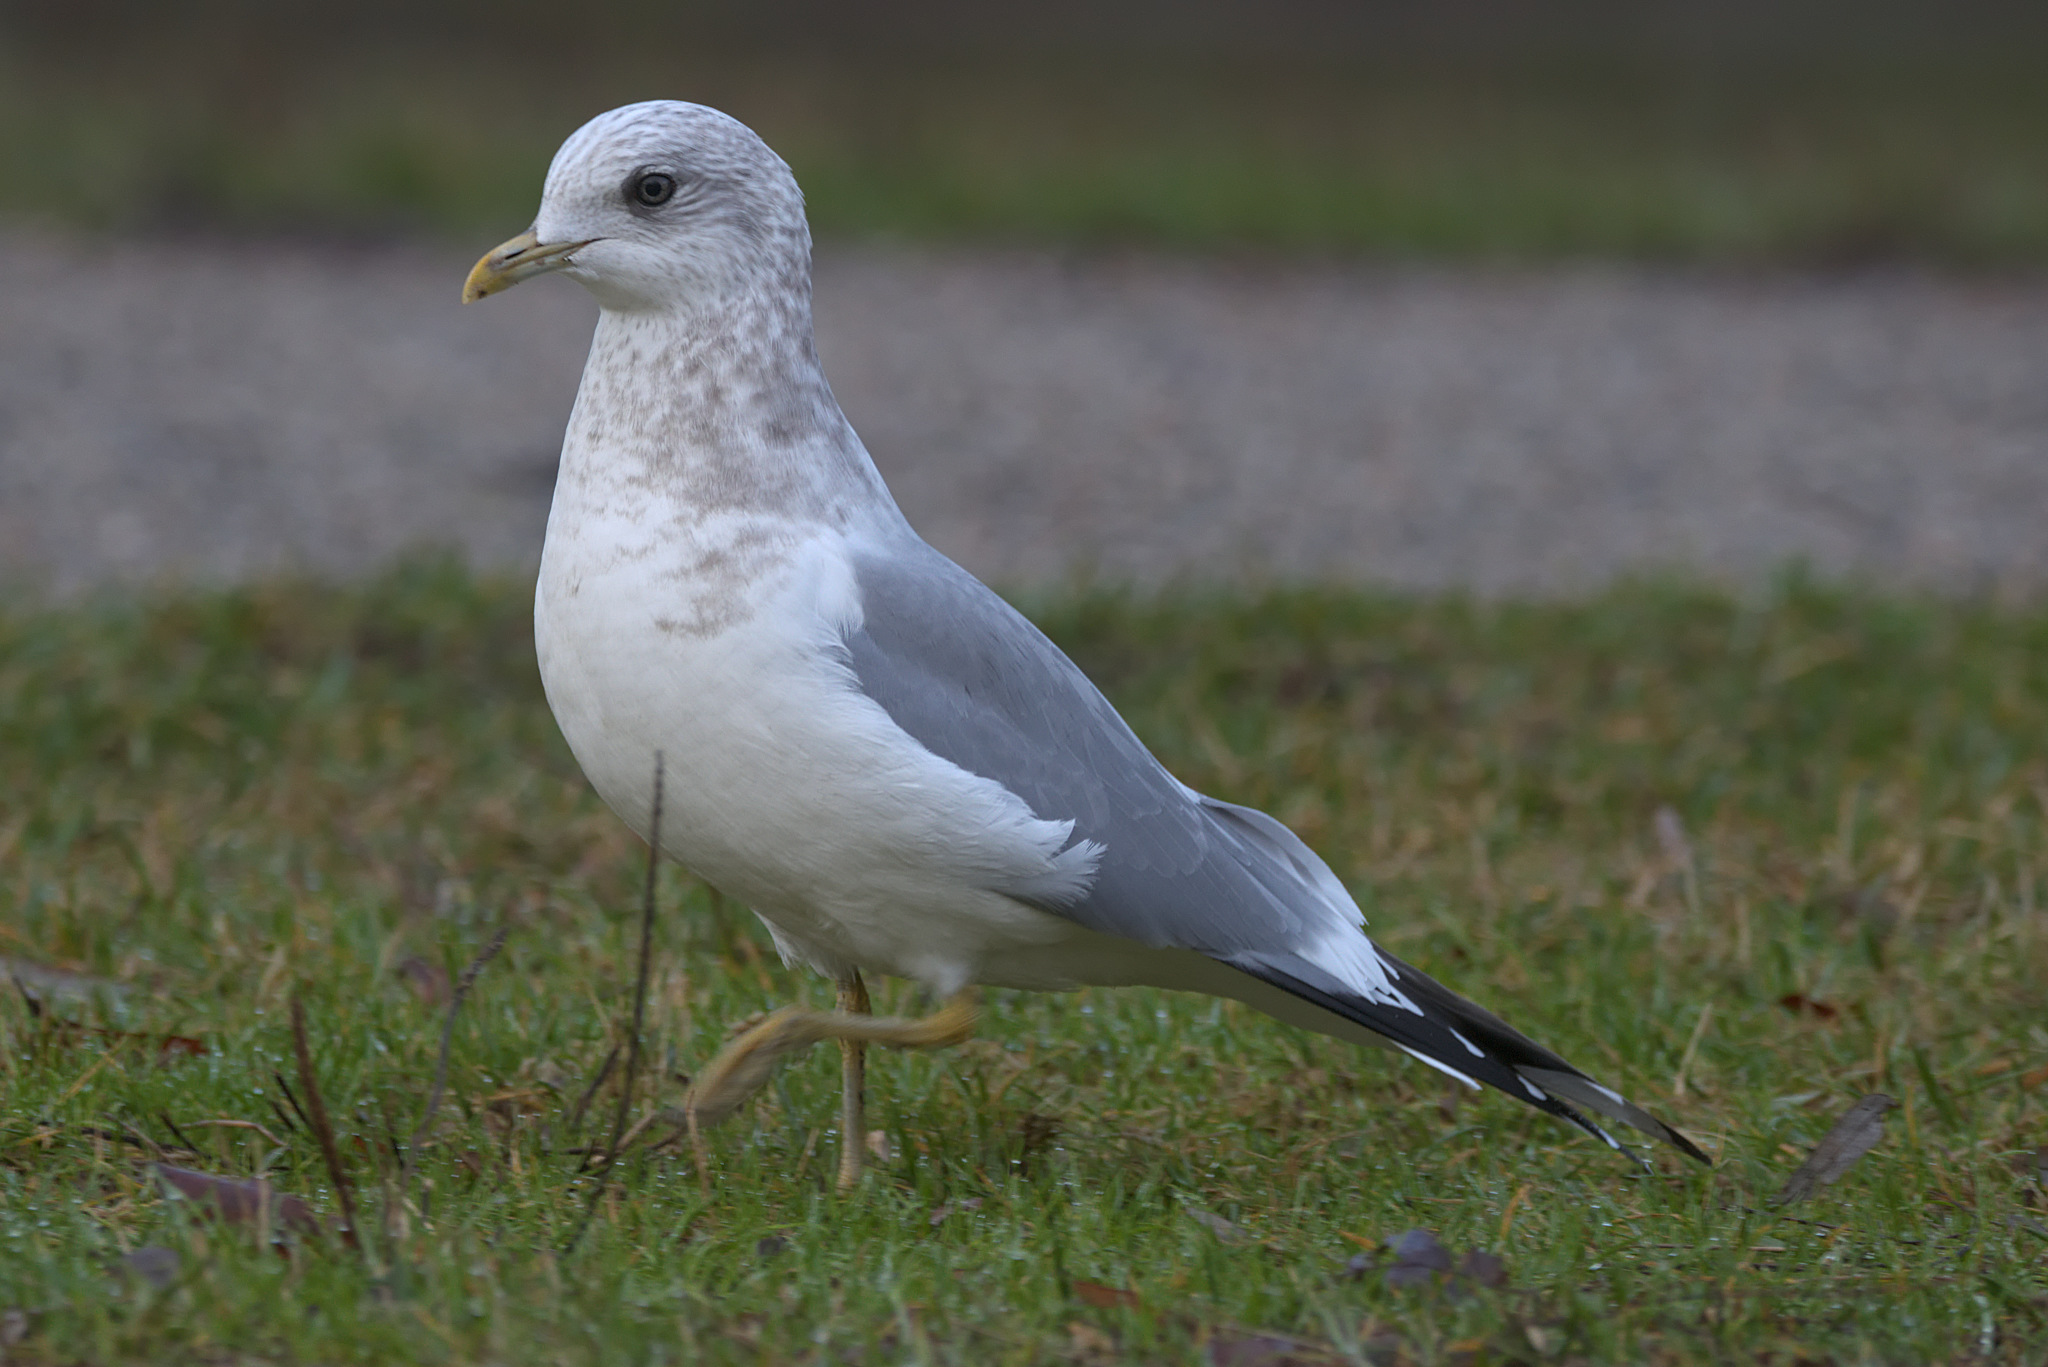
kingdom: Animalia
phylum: Chordata
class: Aves
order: Charadriiformes
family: Laridae
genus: Larus
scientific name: Larus brachyrhynchus
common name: Short-billed gull
